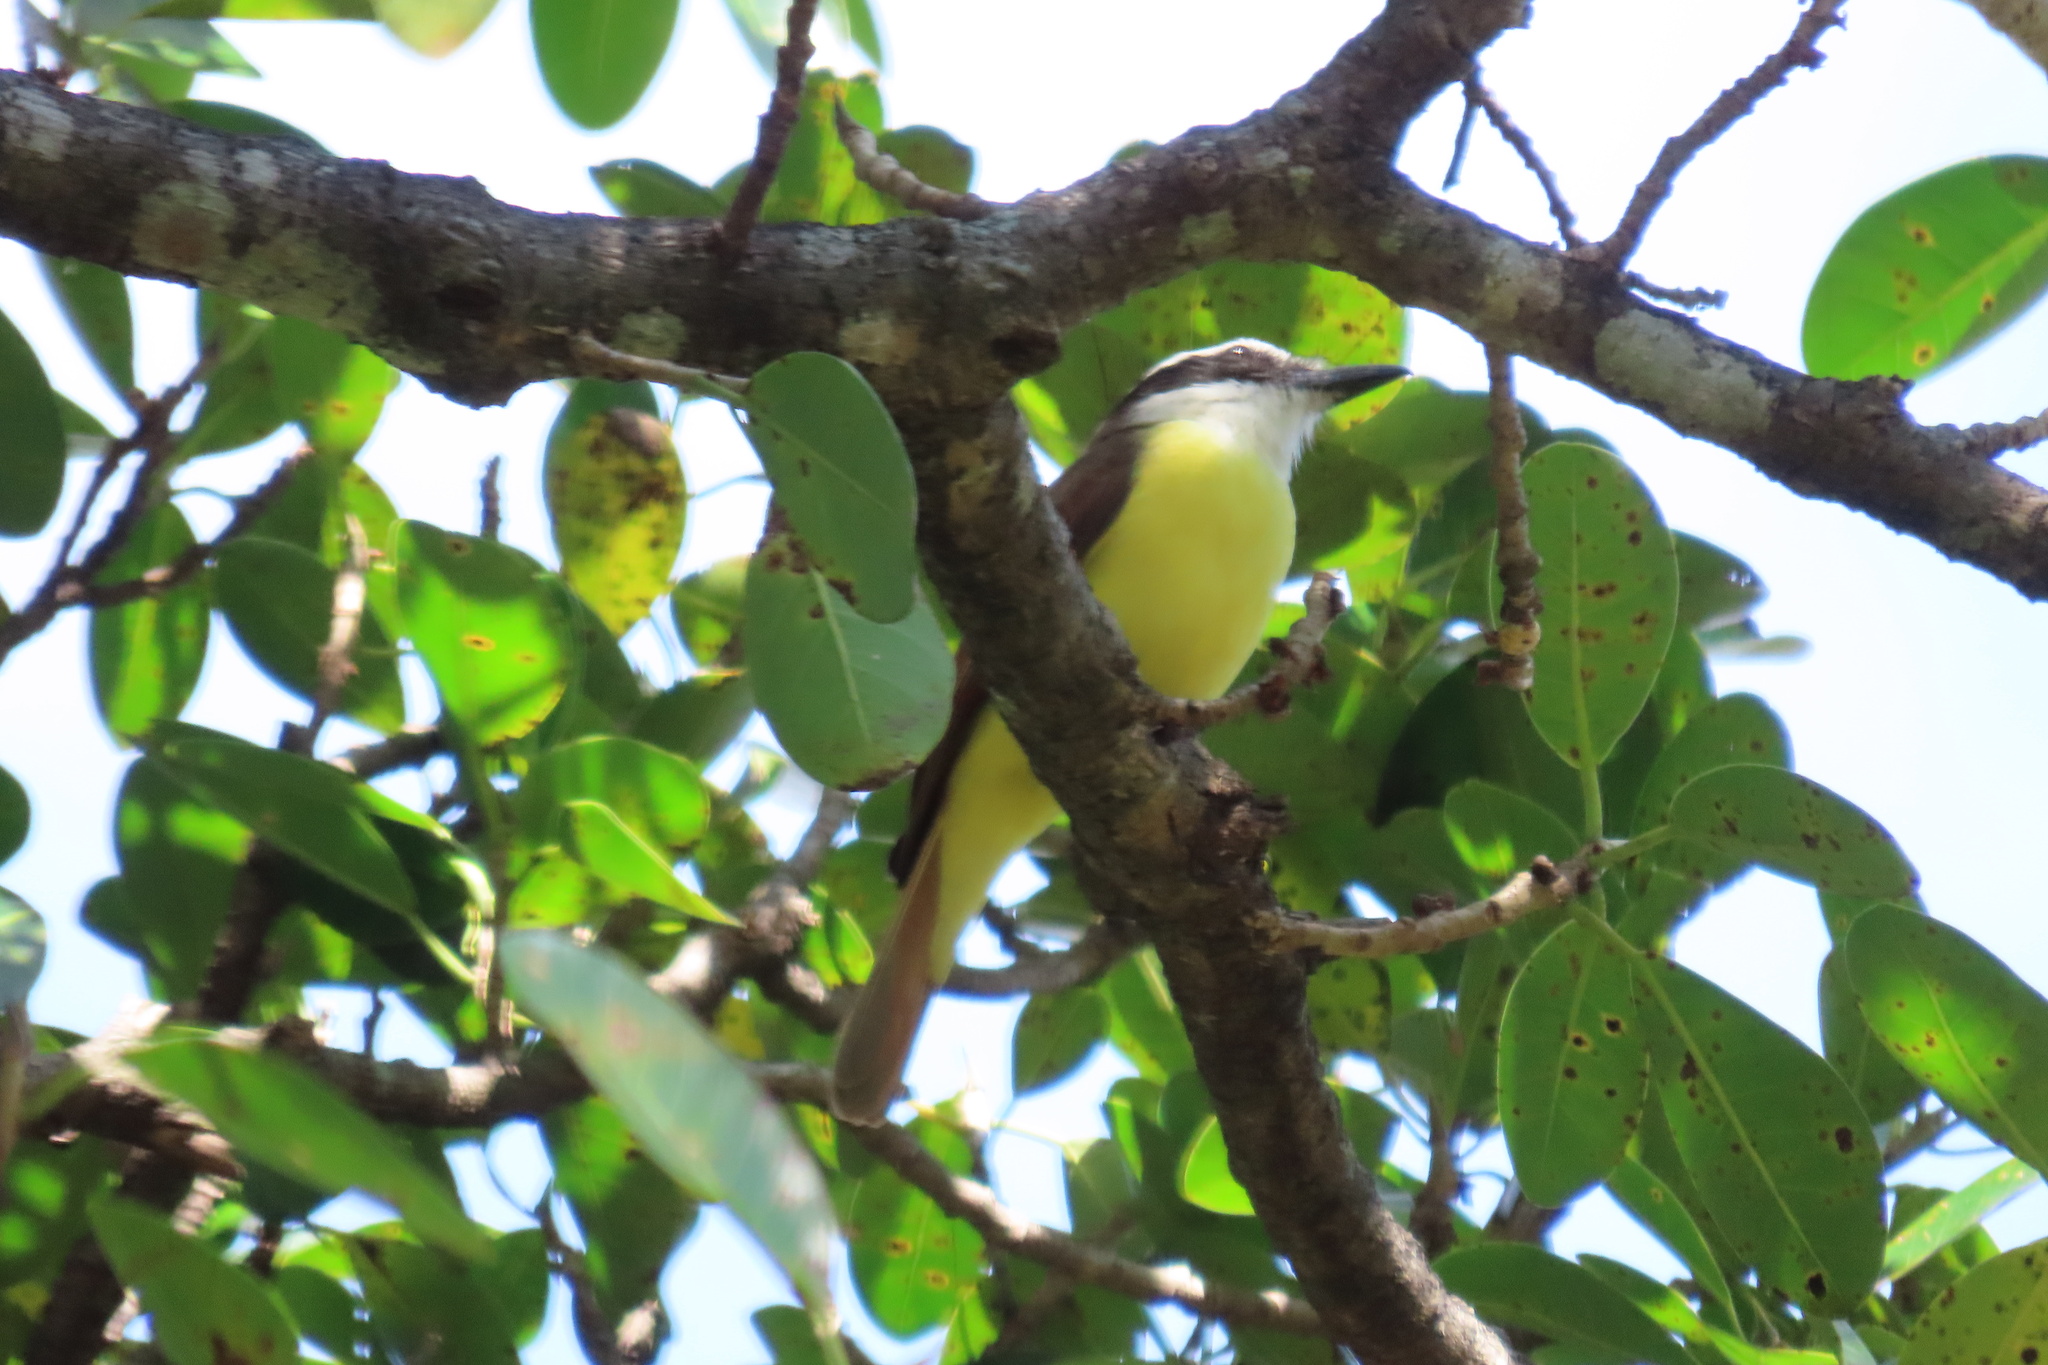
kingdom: Animalia
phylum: Chordata
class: Aves
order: Passeriformes
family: Tyrannidae
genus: Pitangus
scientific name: Pitangus sulphuratus
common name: Great kiskadee
